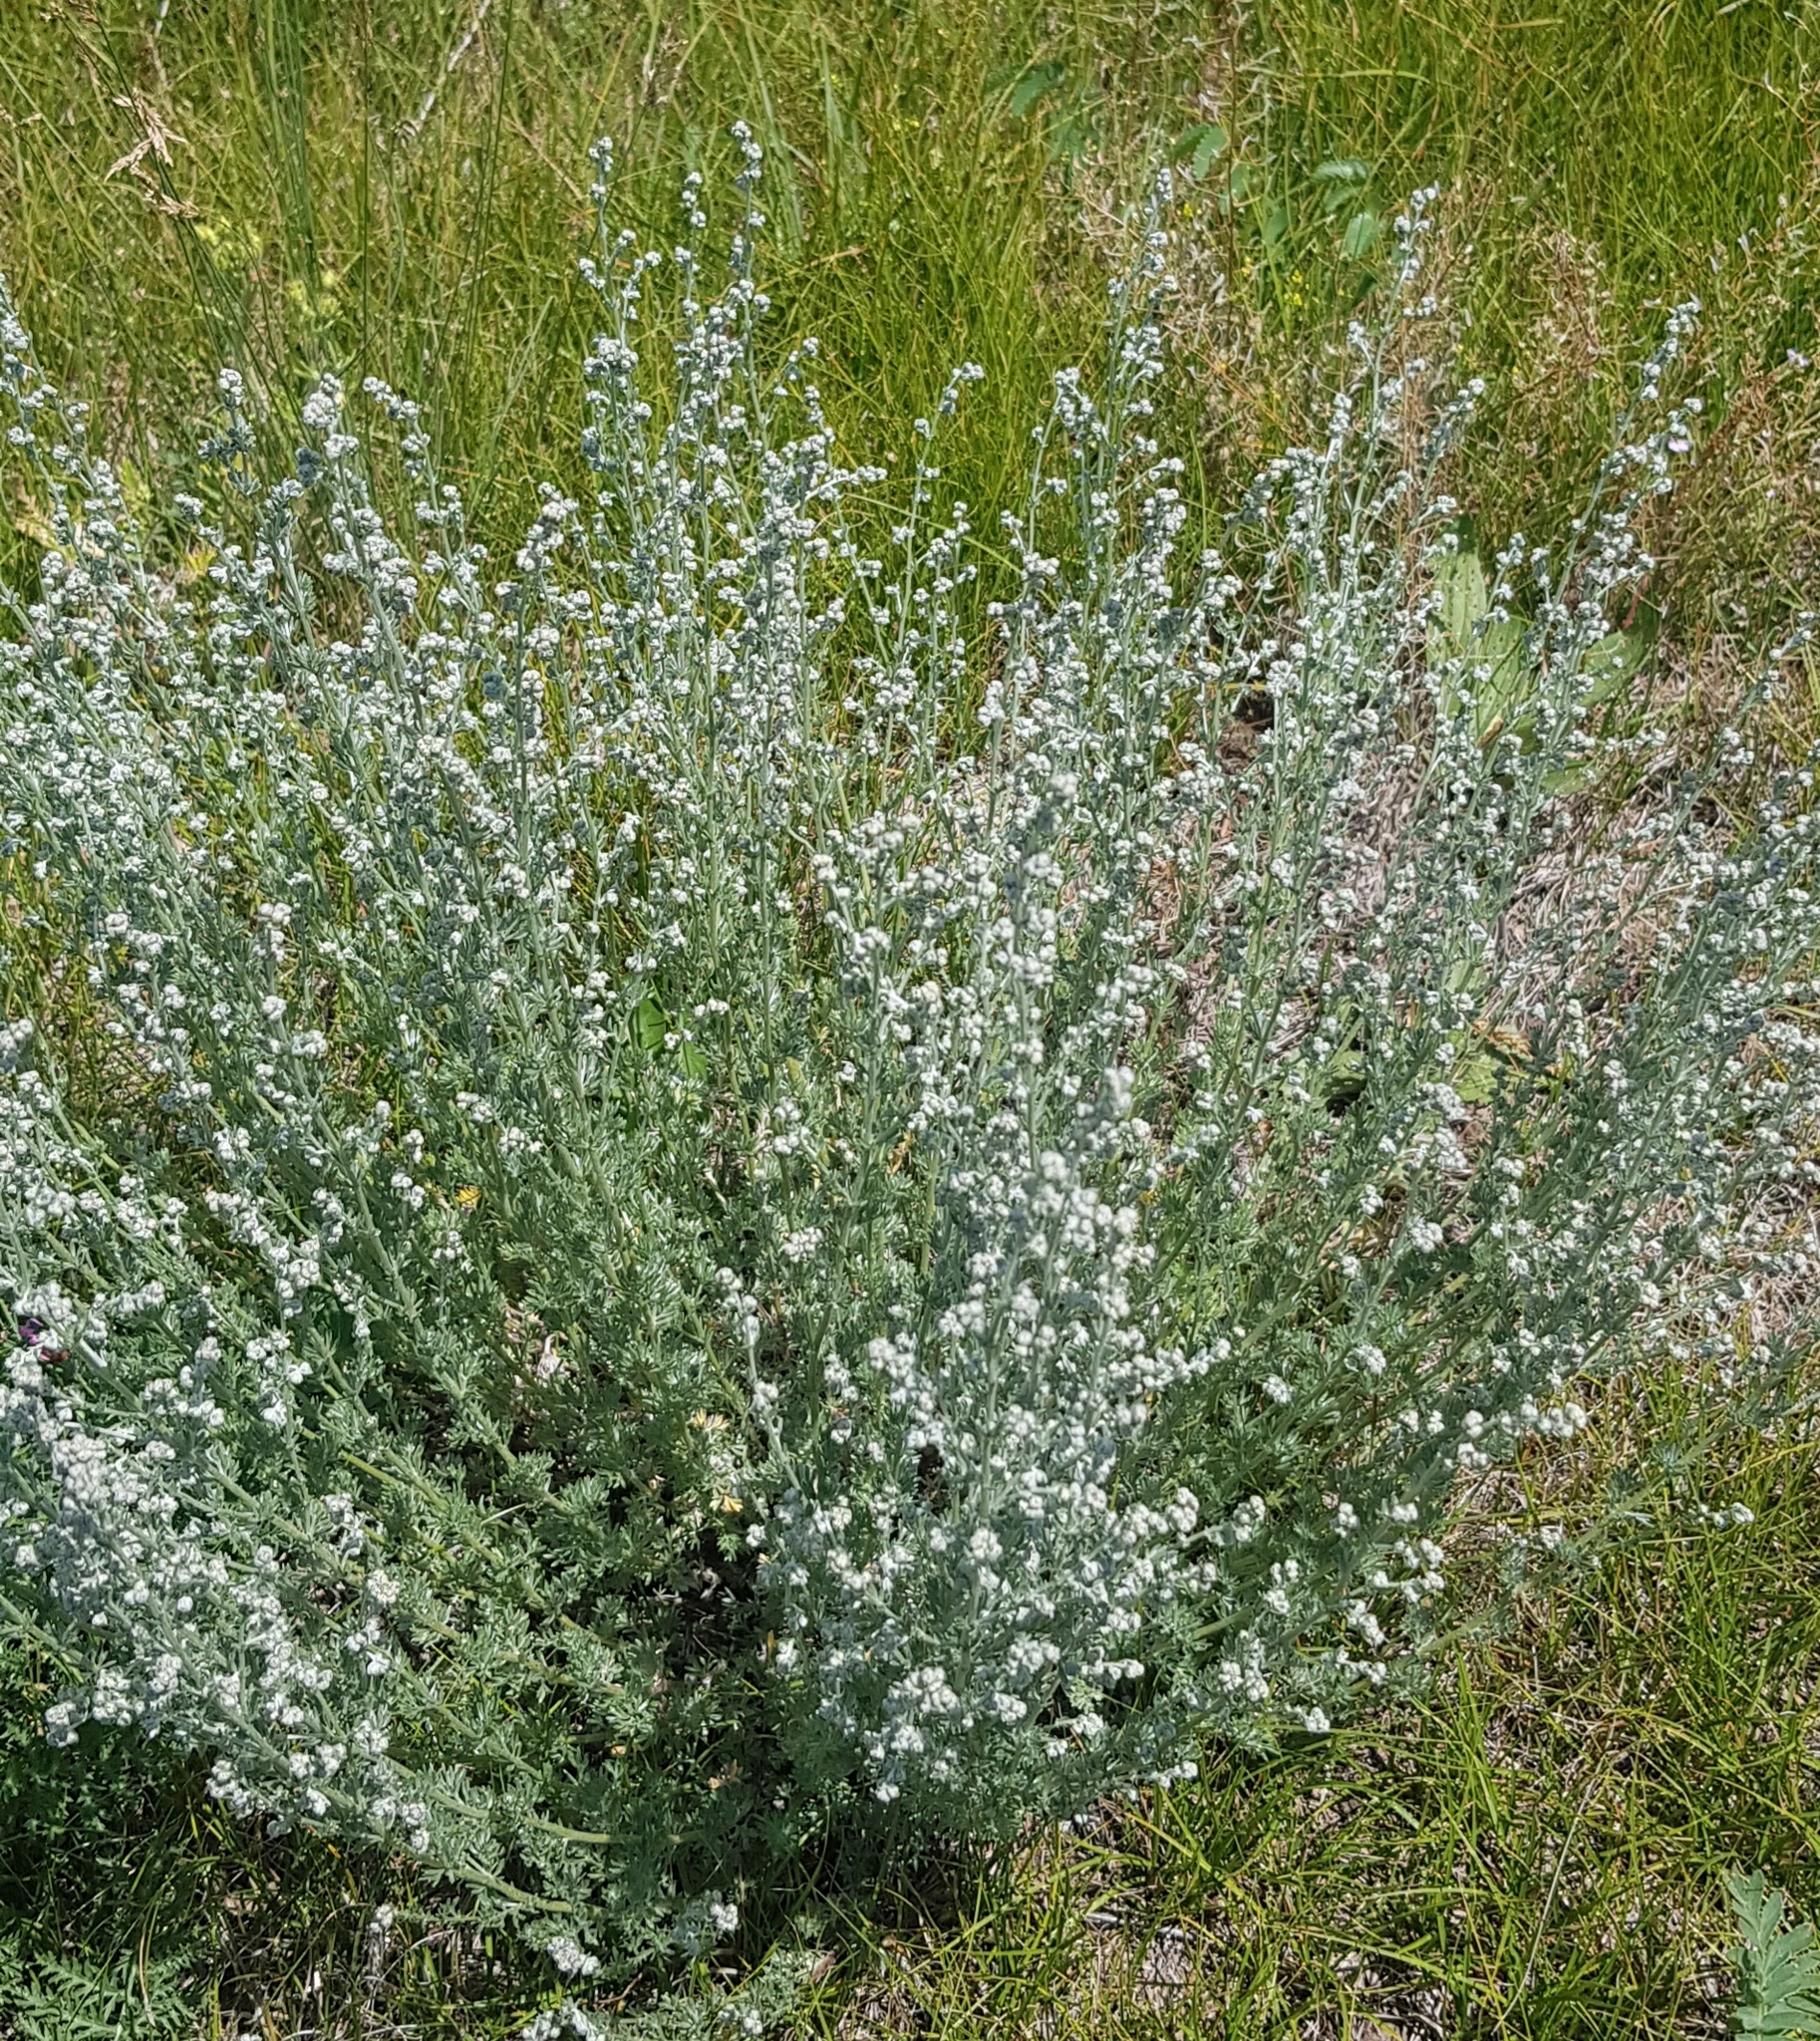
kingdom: Plantae
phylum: Tracheophyta
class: Magnoliopsida
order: Asterales
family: Asteraceae
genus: Artemisia
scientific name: Artemisia sericea
